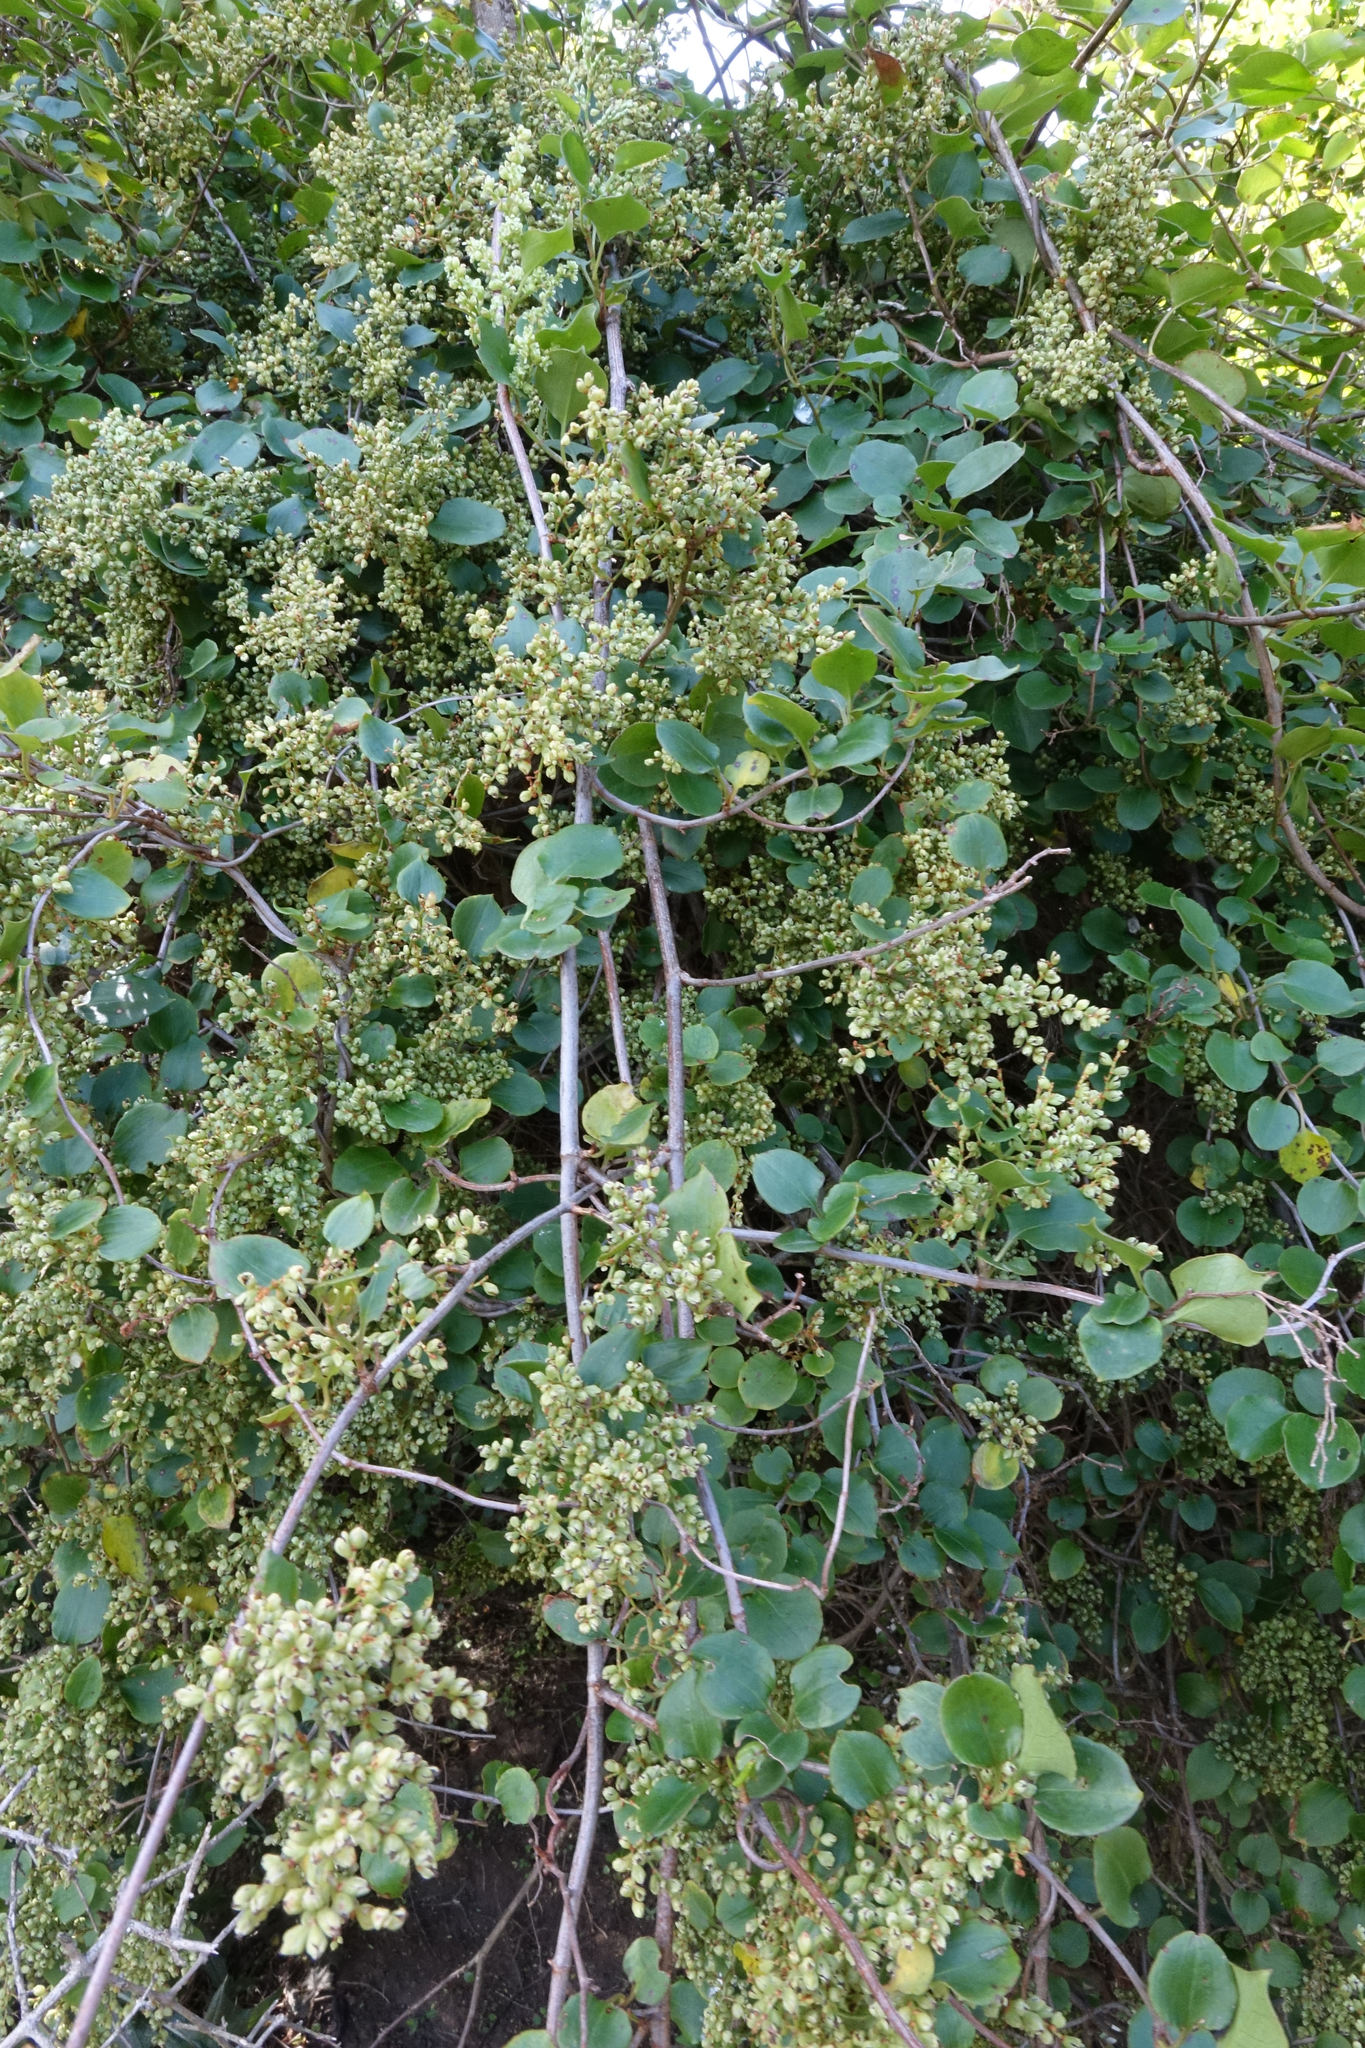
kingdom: Plantae
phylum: Tracheophyta
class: Magnoliopsida
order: Caryophyllales
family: Polygonaceae
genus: Muehlenbeckia
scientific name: Muehlenbeckia australis
